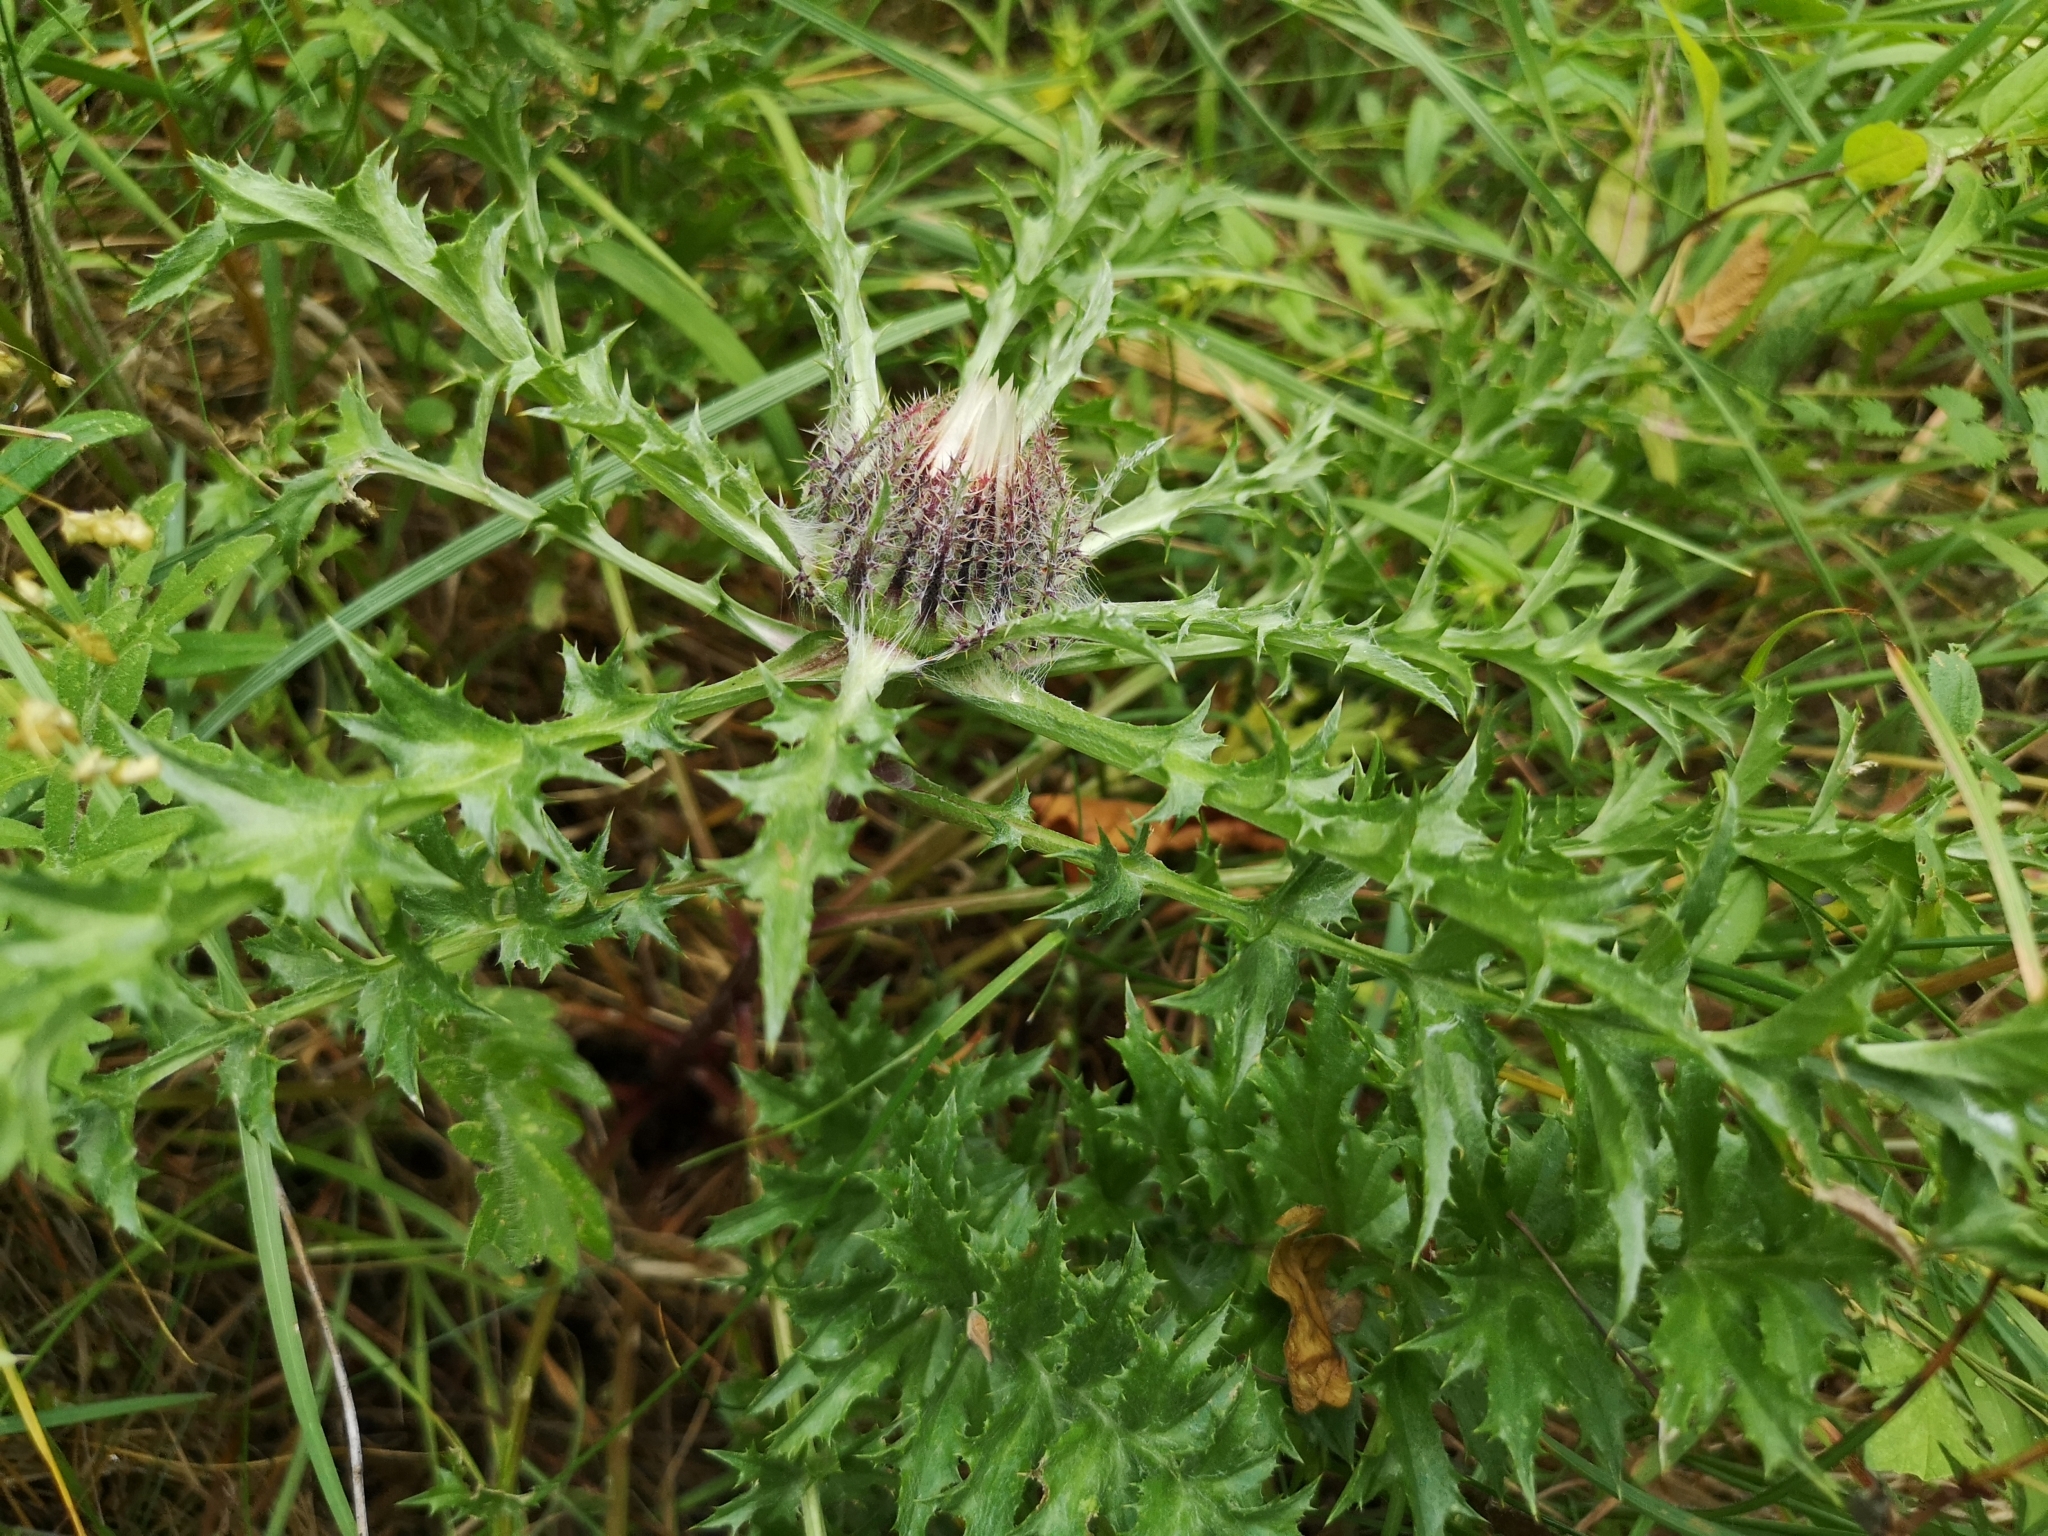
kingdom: Plantae
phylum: Tracheophyta
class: Magnoliopsida
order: Asterales
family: Asteraceae
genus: Carlina
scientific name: Carlina acaulis
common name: Stemless carline thistle
